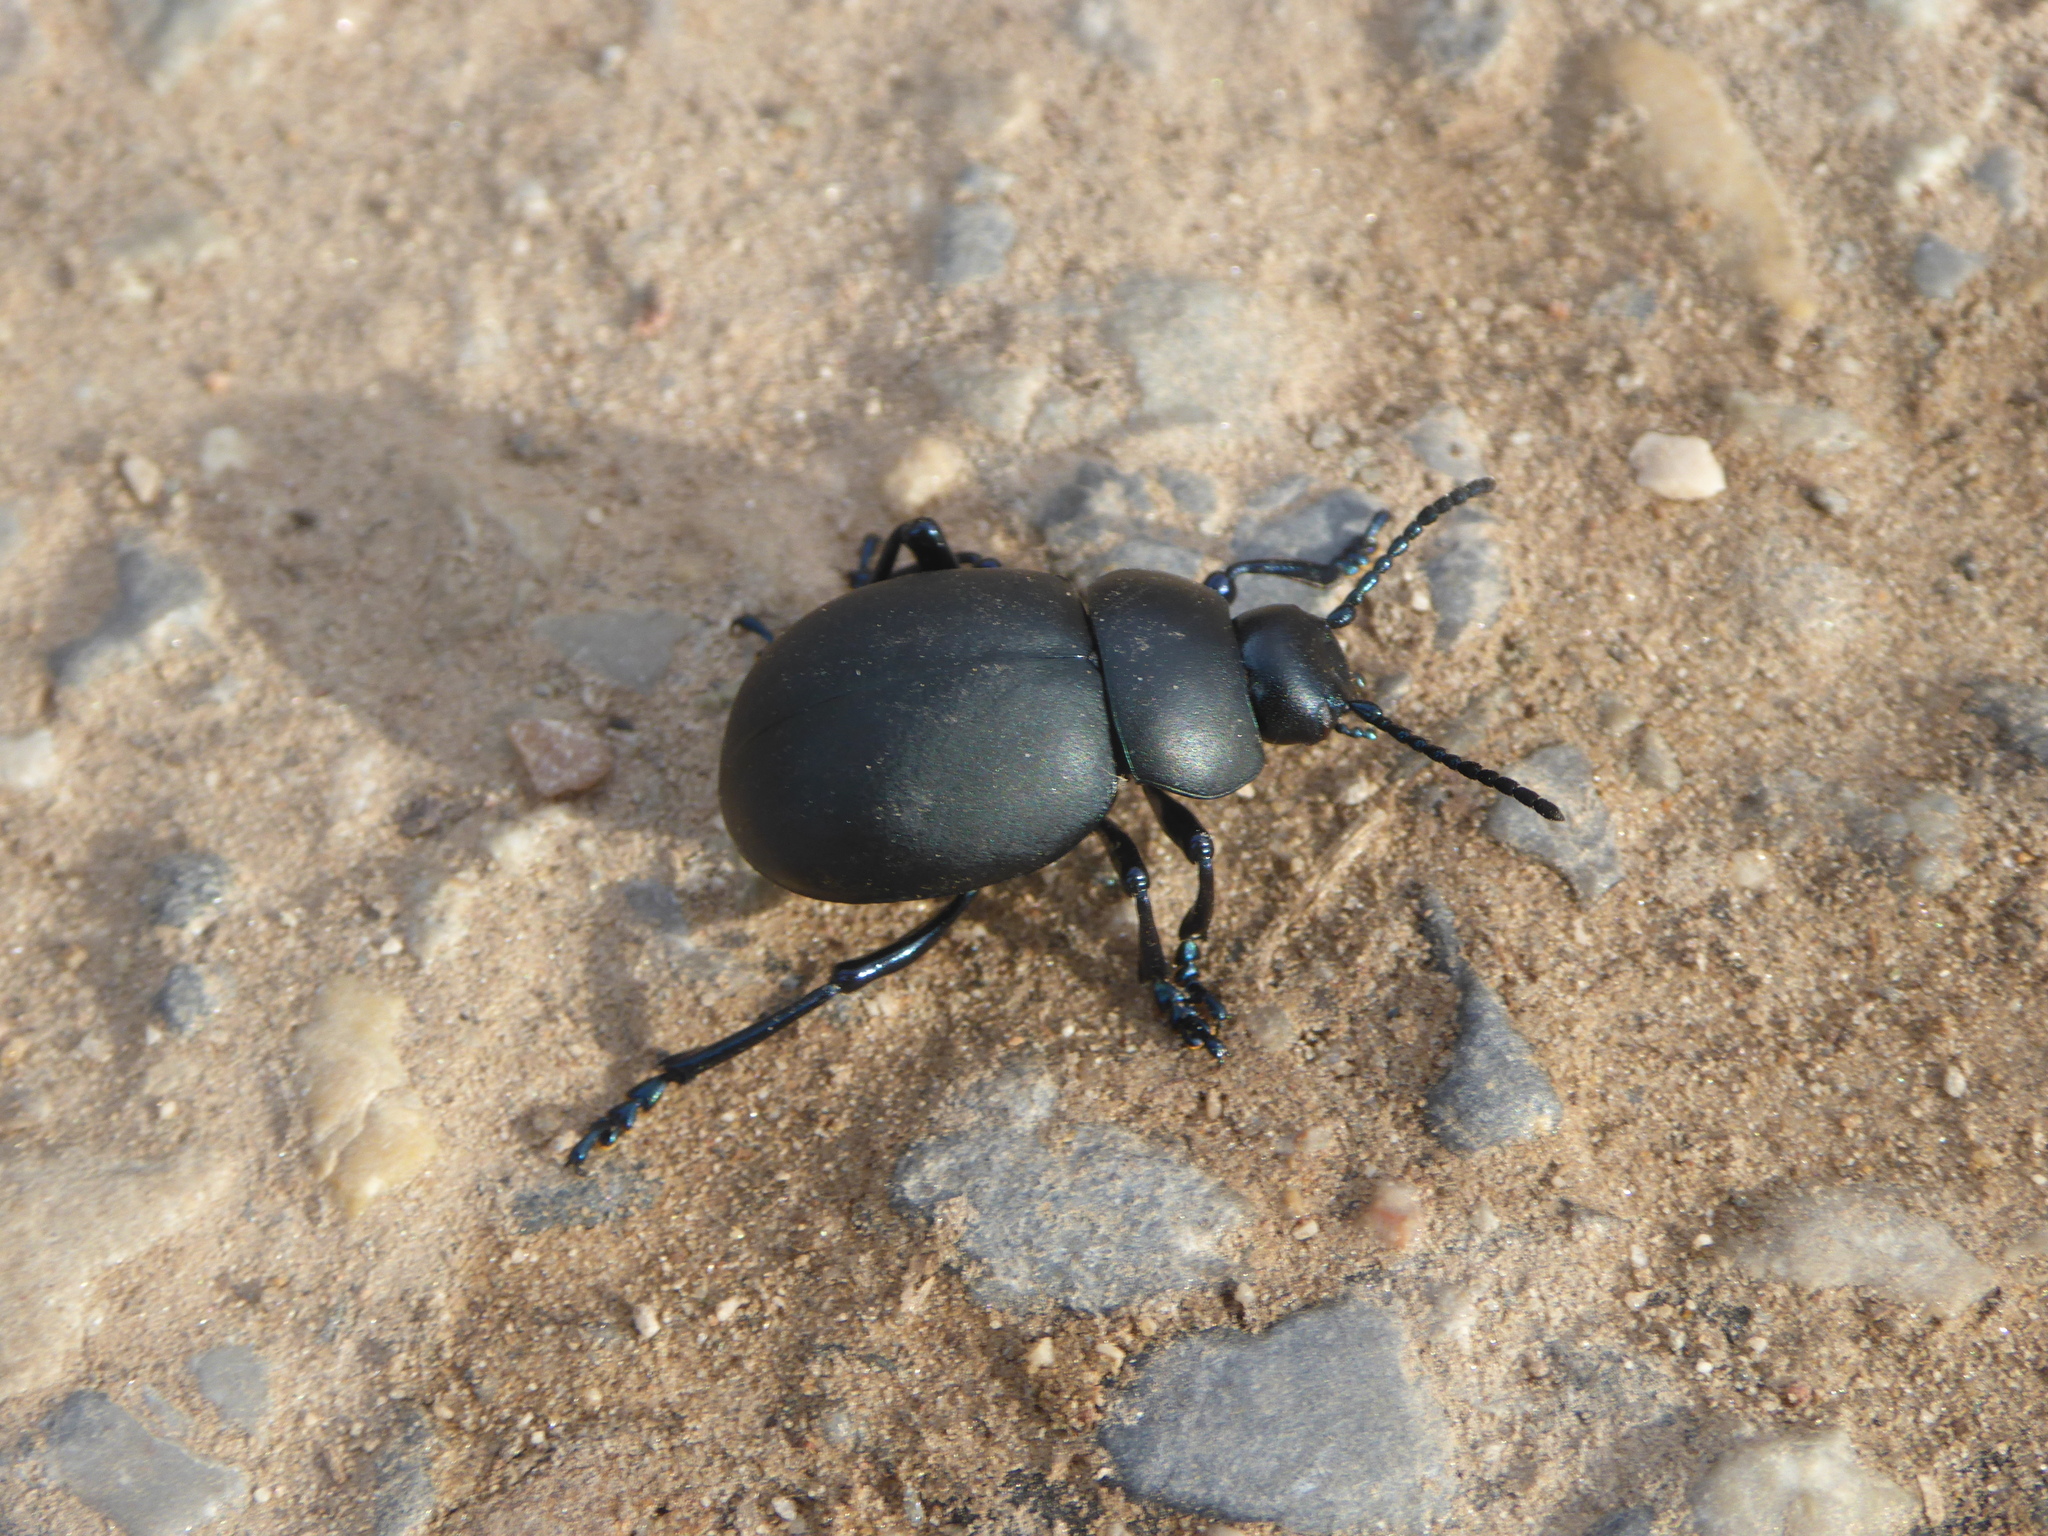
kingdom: Animalia
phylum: Arthropoda
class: Insecta
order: Coleoptera
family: Chrysomelidae
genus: Timarcha
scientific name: Timarcha nicaeensis
